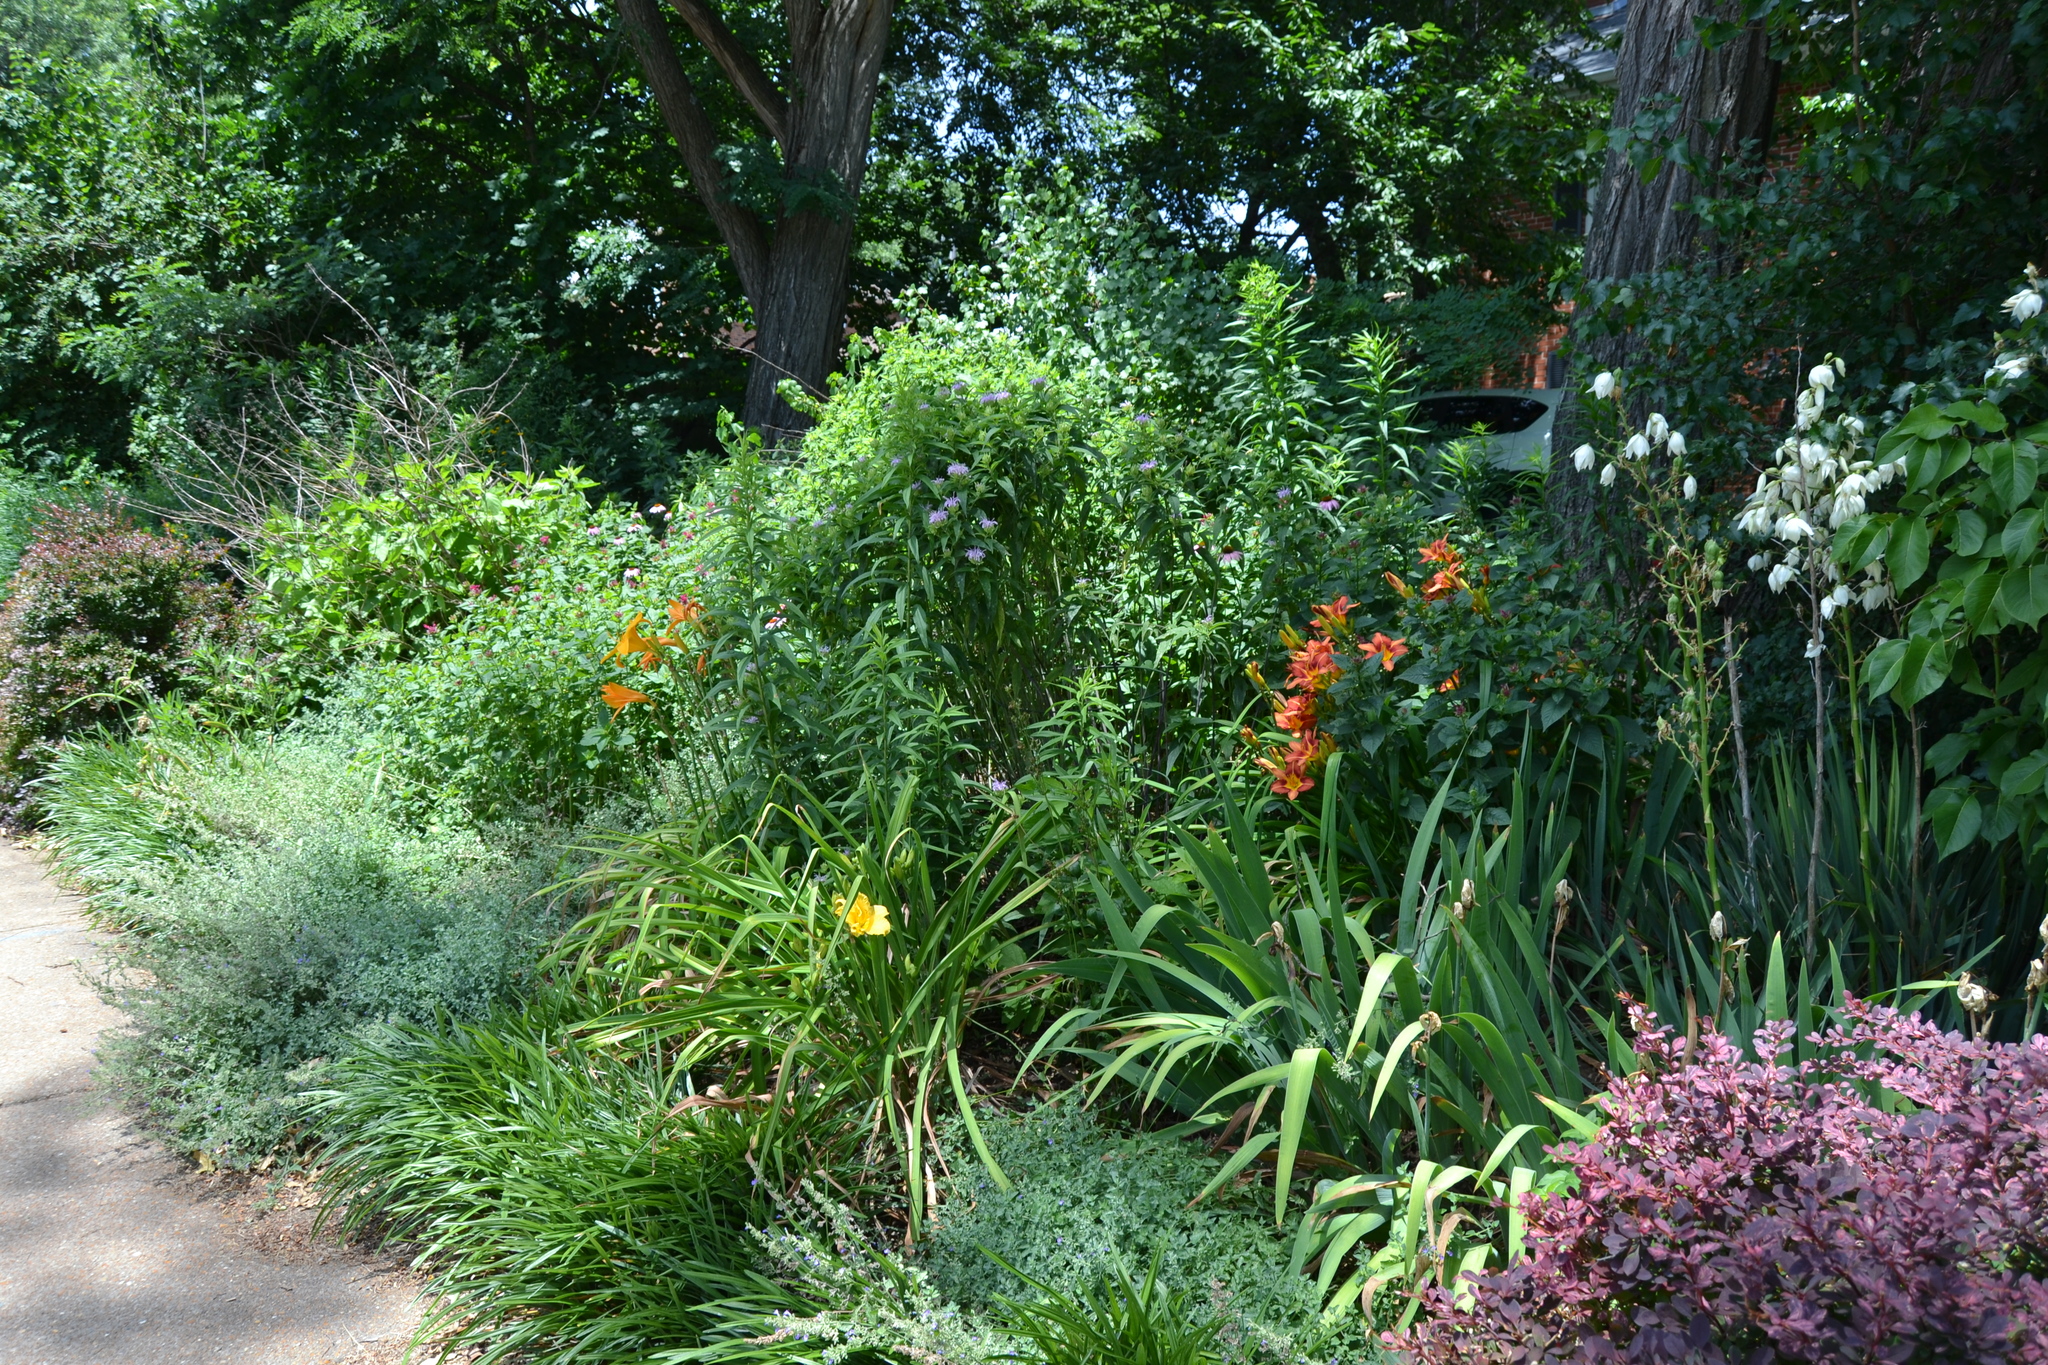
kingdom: Plantae
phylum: Tracheophyta
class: Magnoliopsida
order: Lamiales
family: Lamiaceae
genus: Monarda
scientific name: Monarda fistulosa
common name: Purple beebalm
